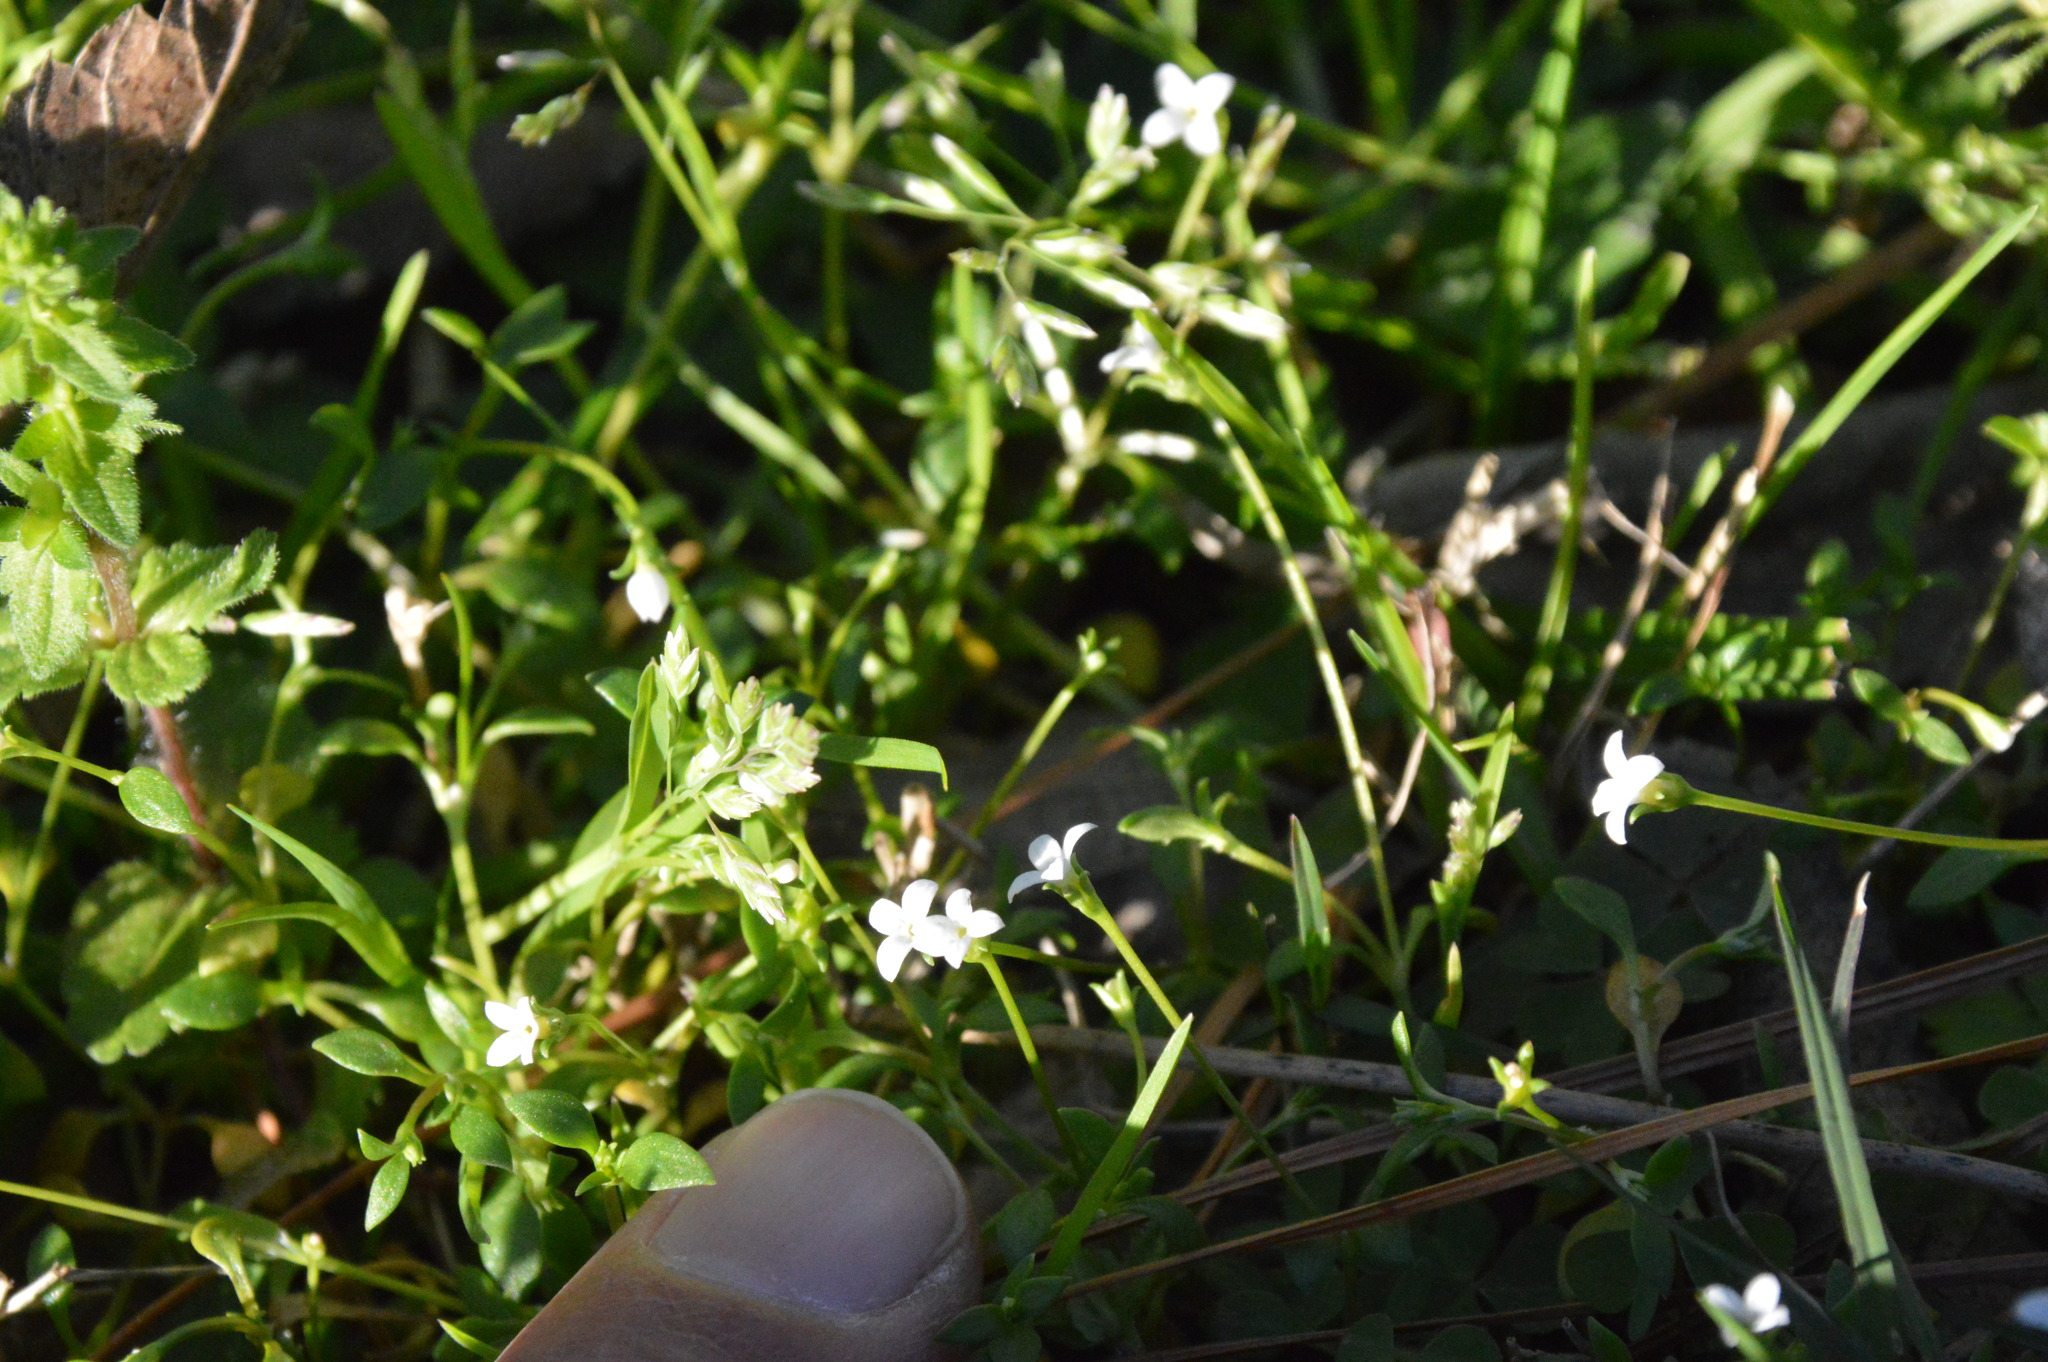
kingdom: Plantae
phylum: Tracheophyta
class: Magnoliopsida
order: Gentianales
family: Rubiaceae
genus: Houstonia
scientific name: Houstonia micrantha
